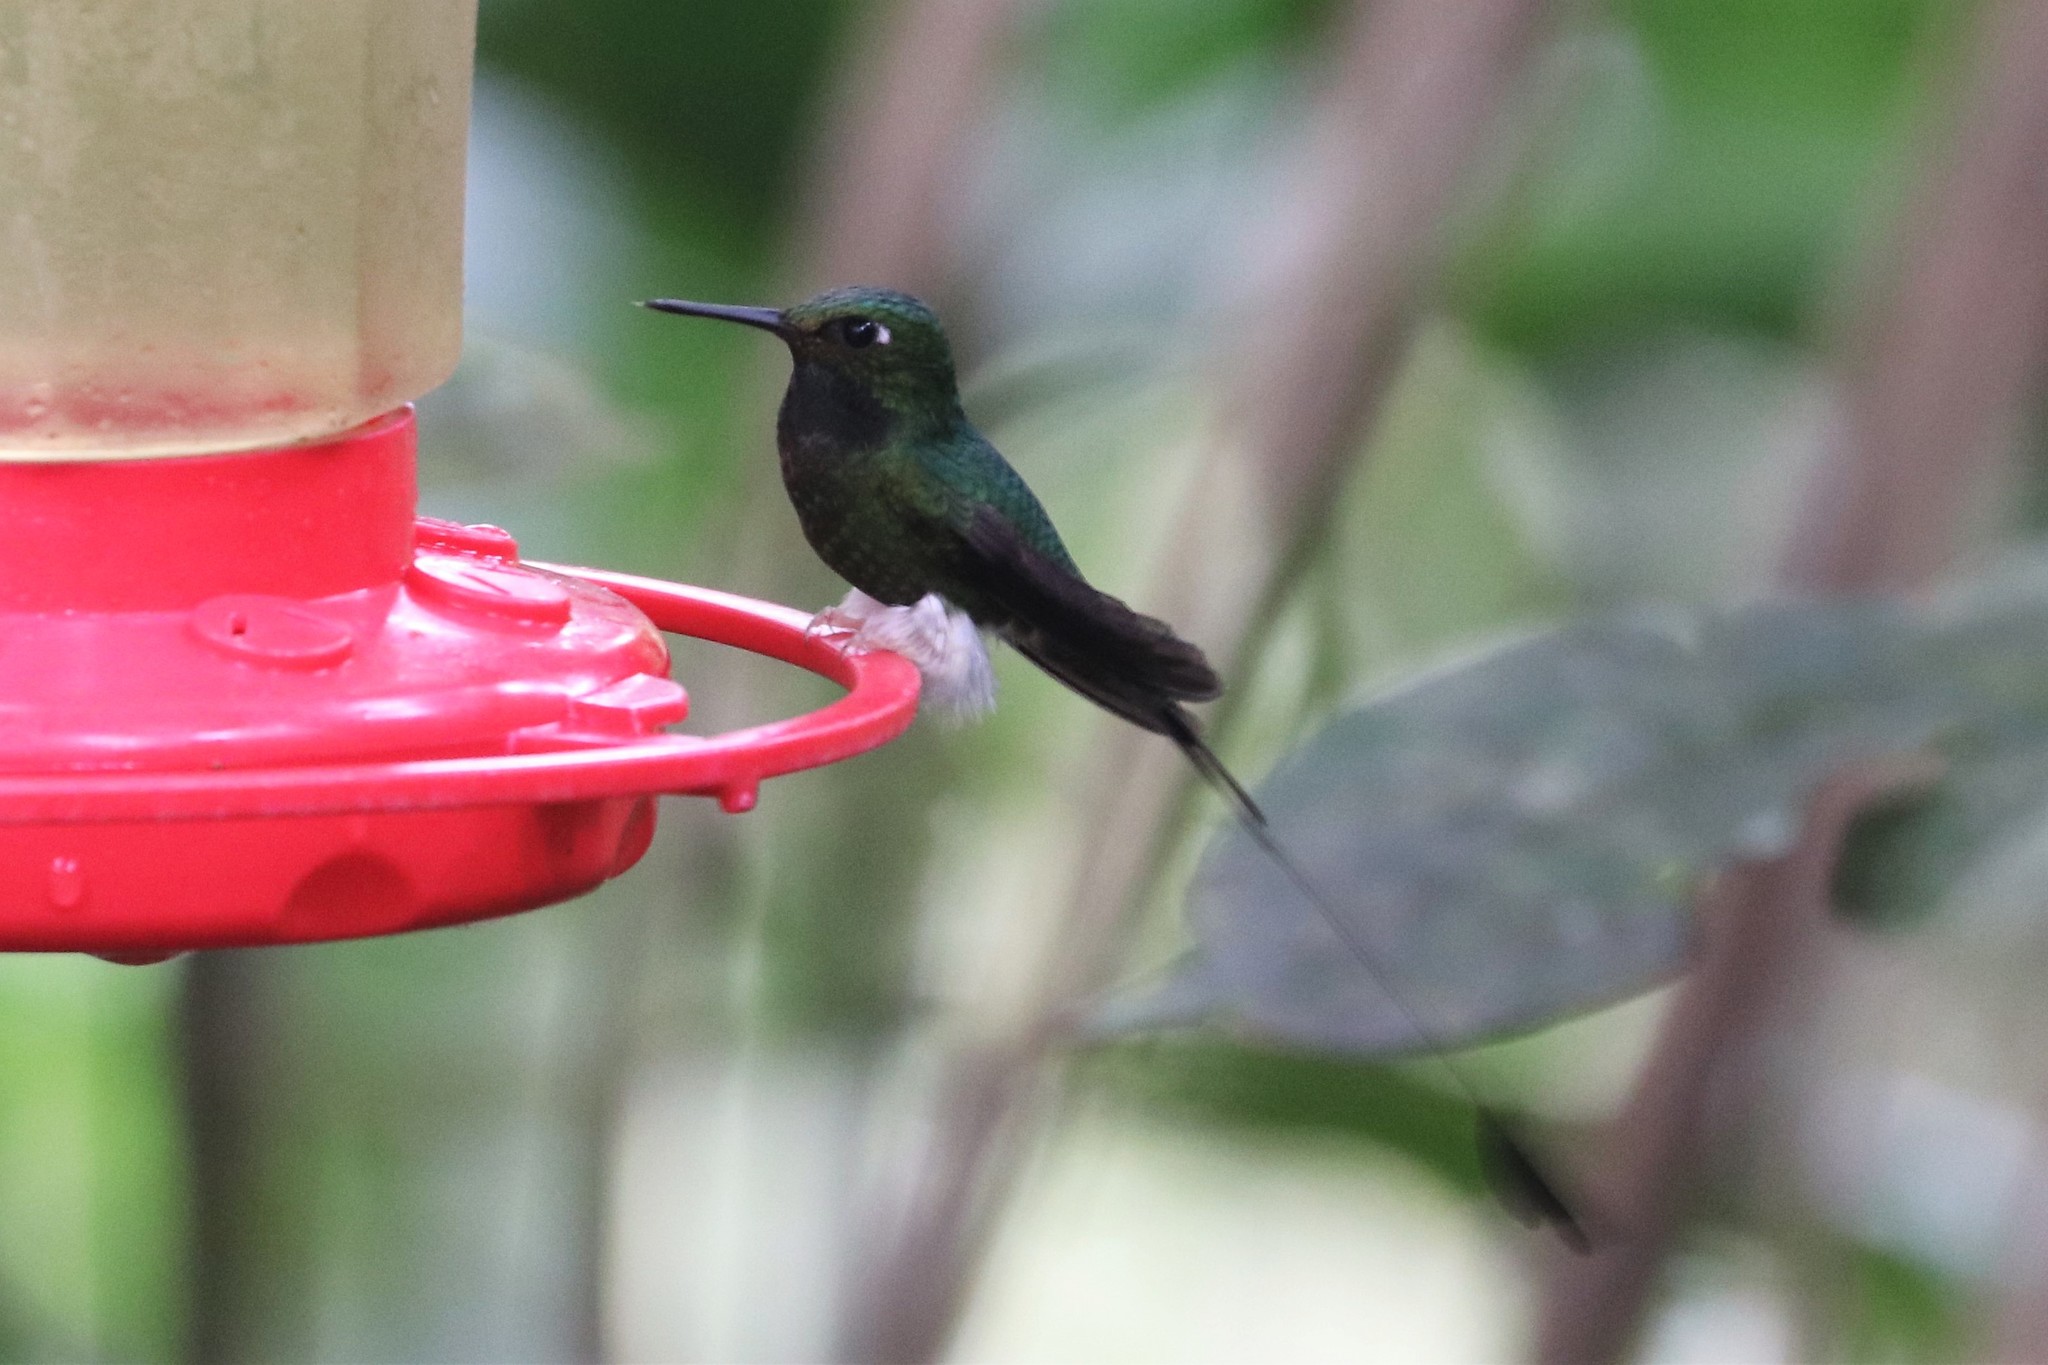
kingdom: Animalia
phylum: Chordata
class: Aves
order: Apodiformes
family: Trochilidae
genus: Ocreatus
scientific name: Ocreatus underwoodii
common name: Booted racket-tail
